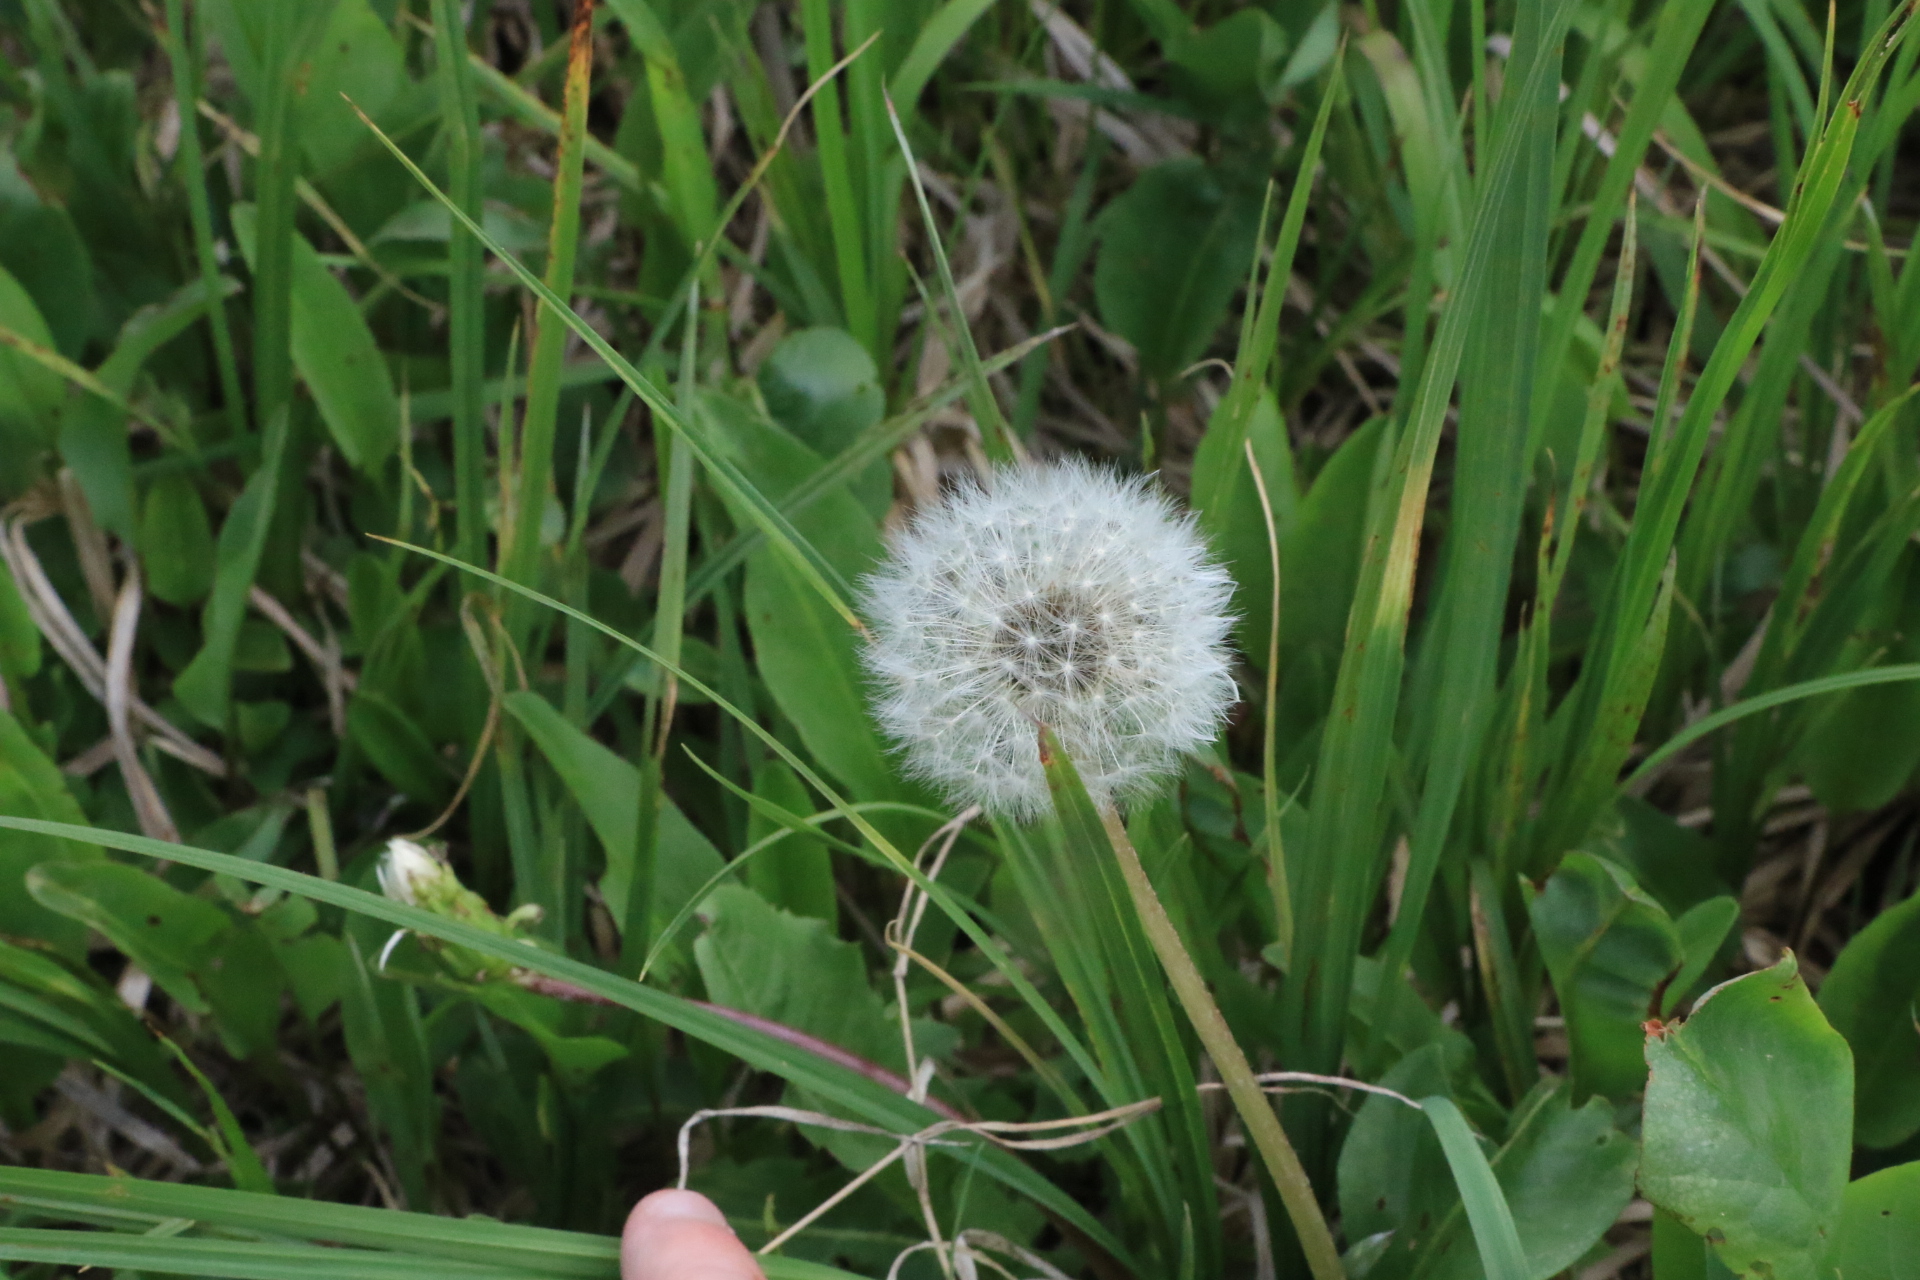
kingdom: Plantae
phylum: Tracheophyta
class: Magnoliopsida
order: Asterales
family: Asteraceae
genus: Taraxacum
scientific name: Taraxacum officinale
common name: Common dandelion
